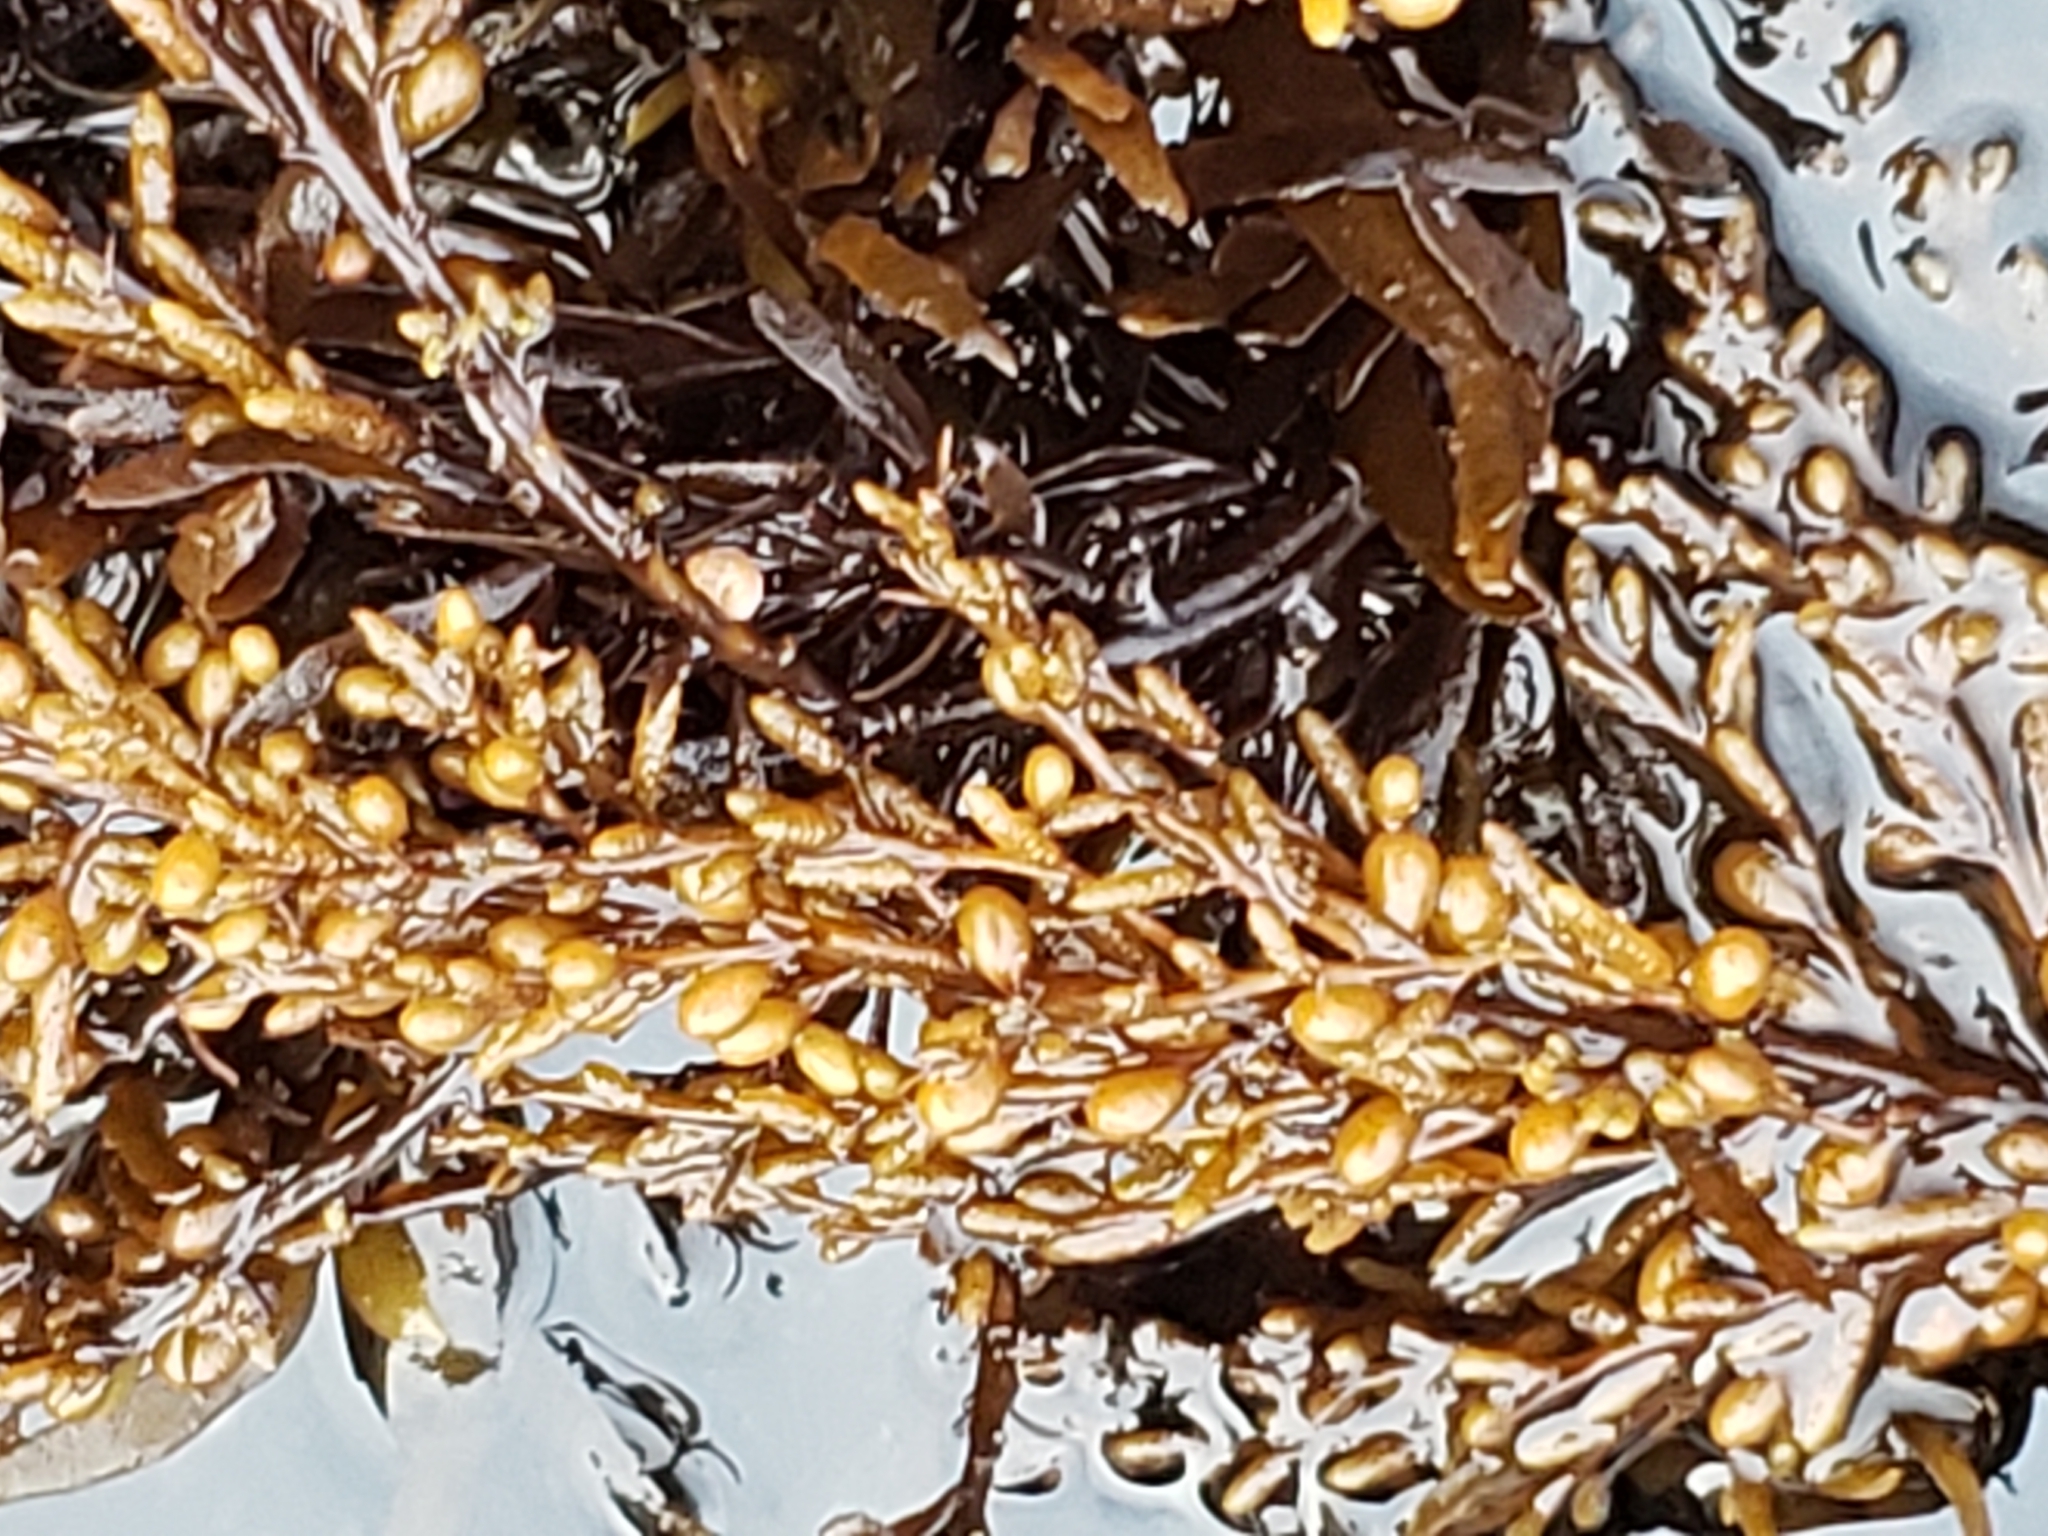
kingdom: Chromista
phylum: Ochrophyta
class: Phaeophyceae
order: Fucales
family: Sargassaceae
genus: Sargassum
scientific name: Sargassum muticum
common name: Japweed
